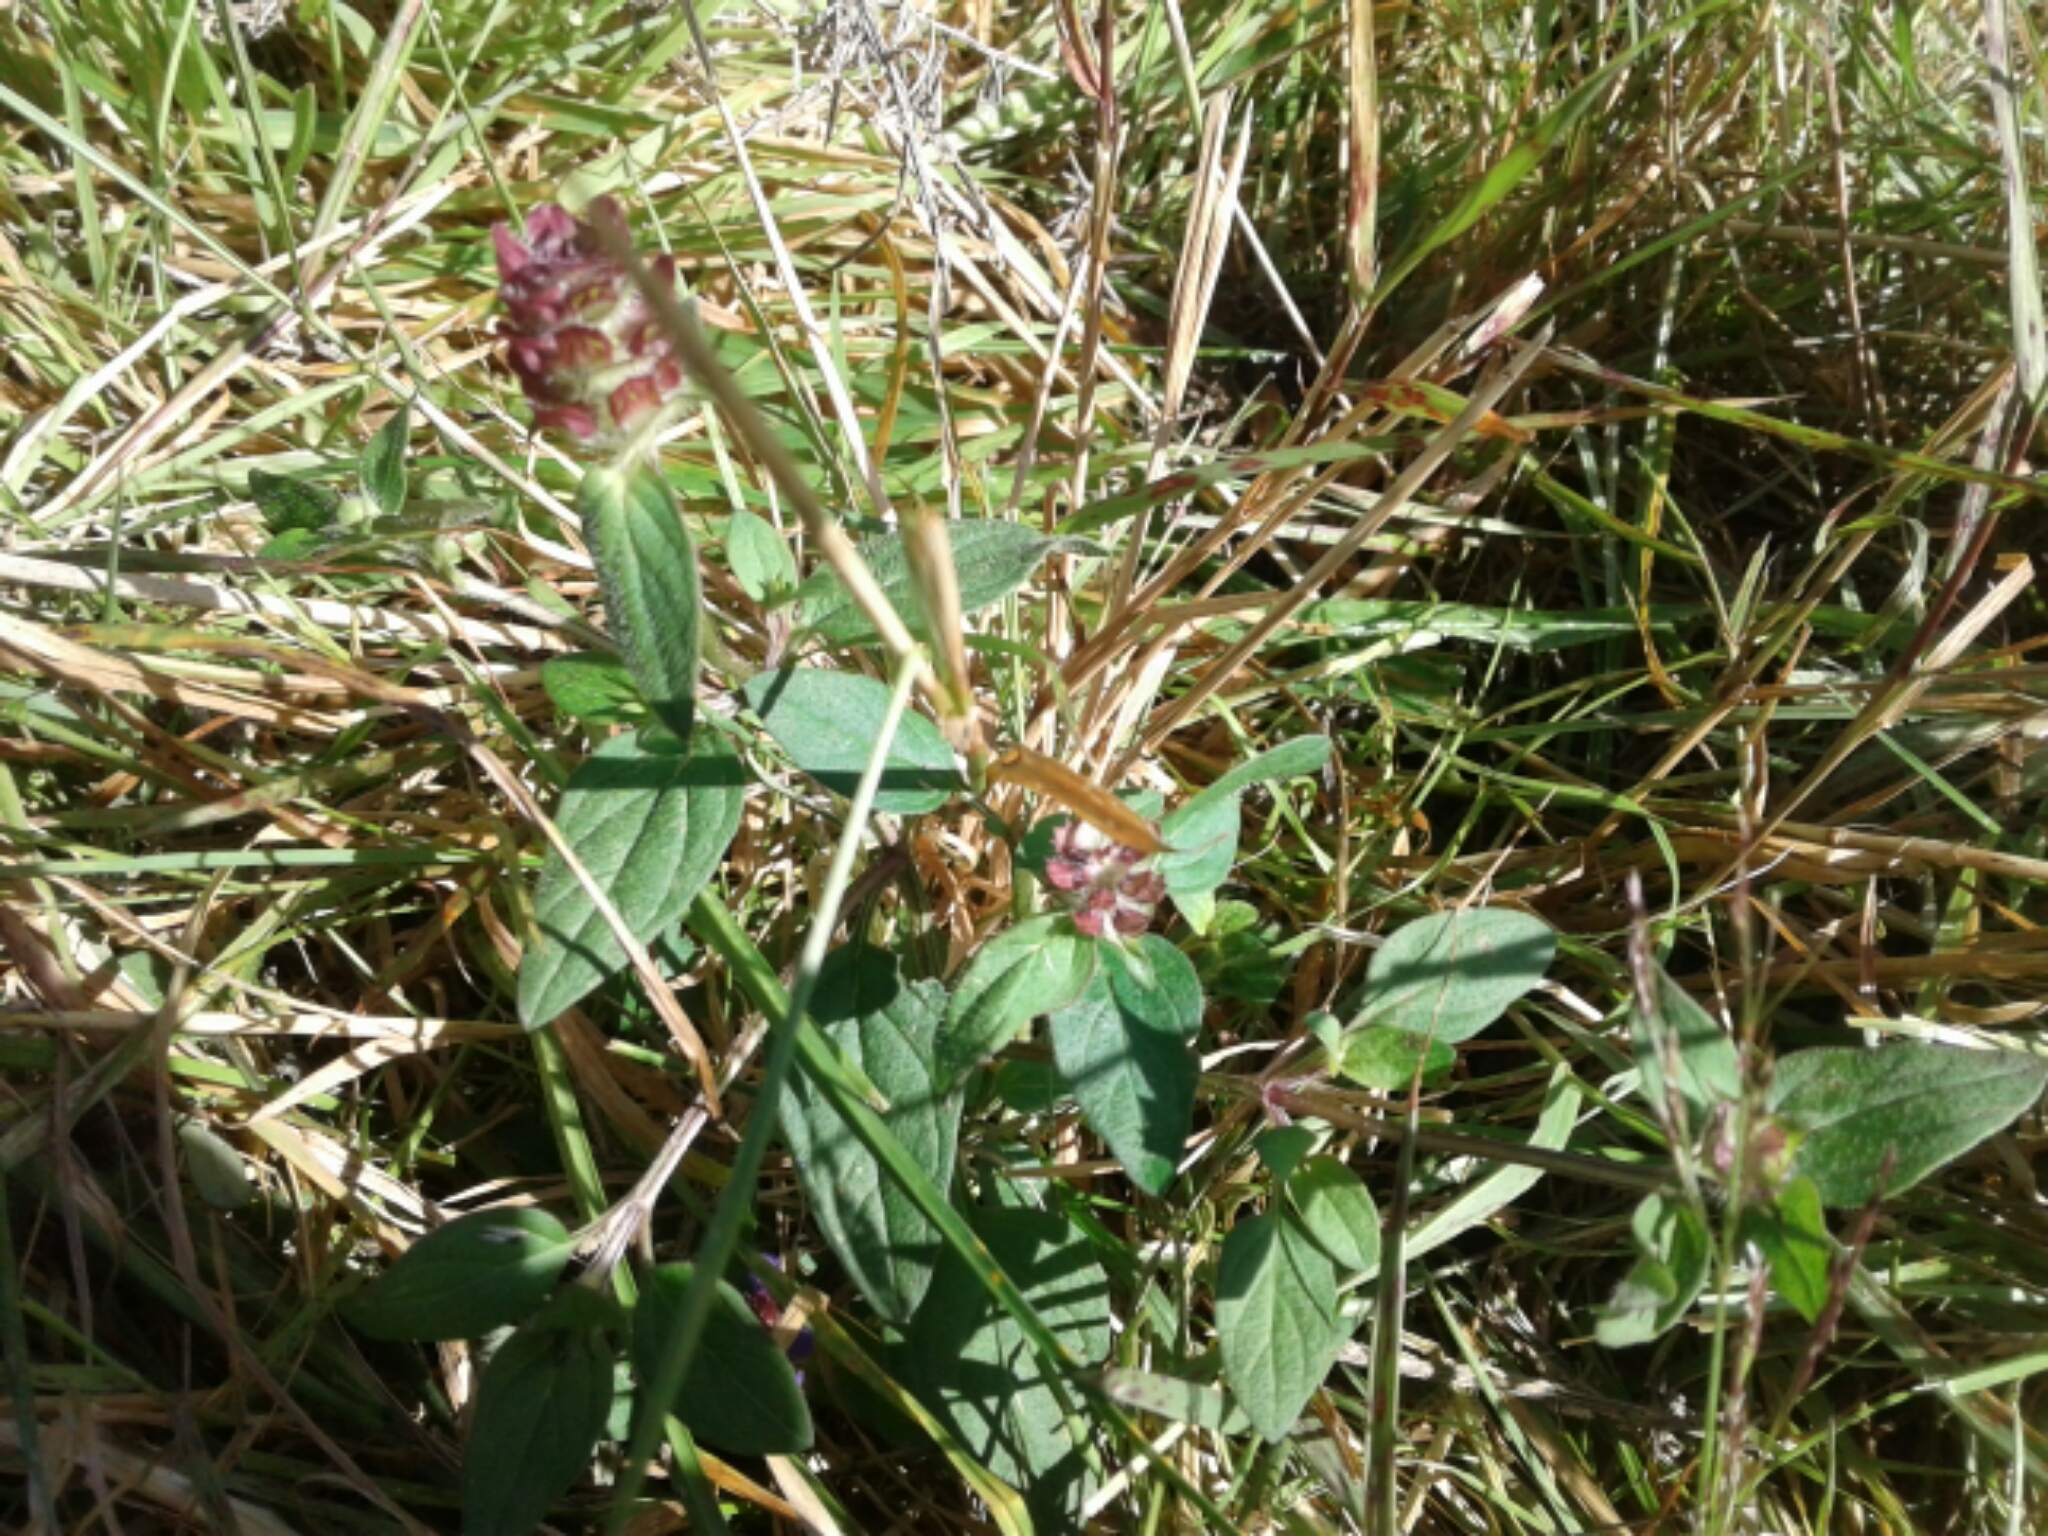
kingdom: Plantae
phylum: Tracheophyta
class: Magnoliopsida
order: Lamiales
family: Lamiaceae
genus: Prunella
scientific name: Prunella vulgaris
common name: Heal-all
